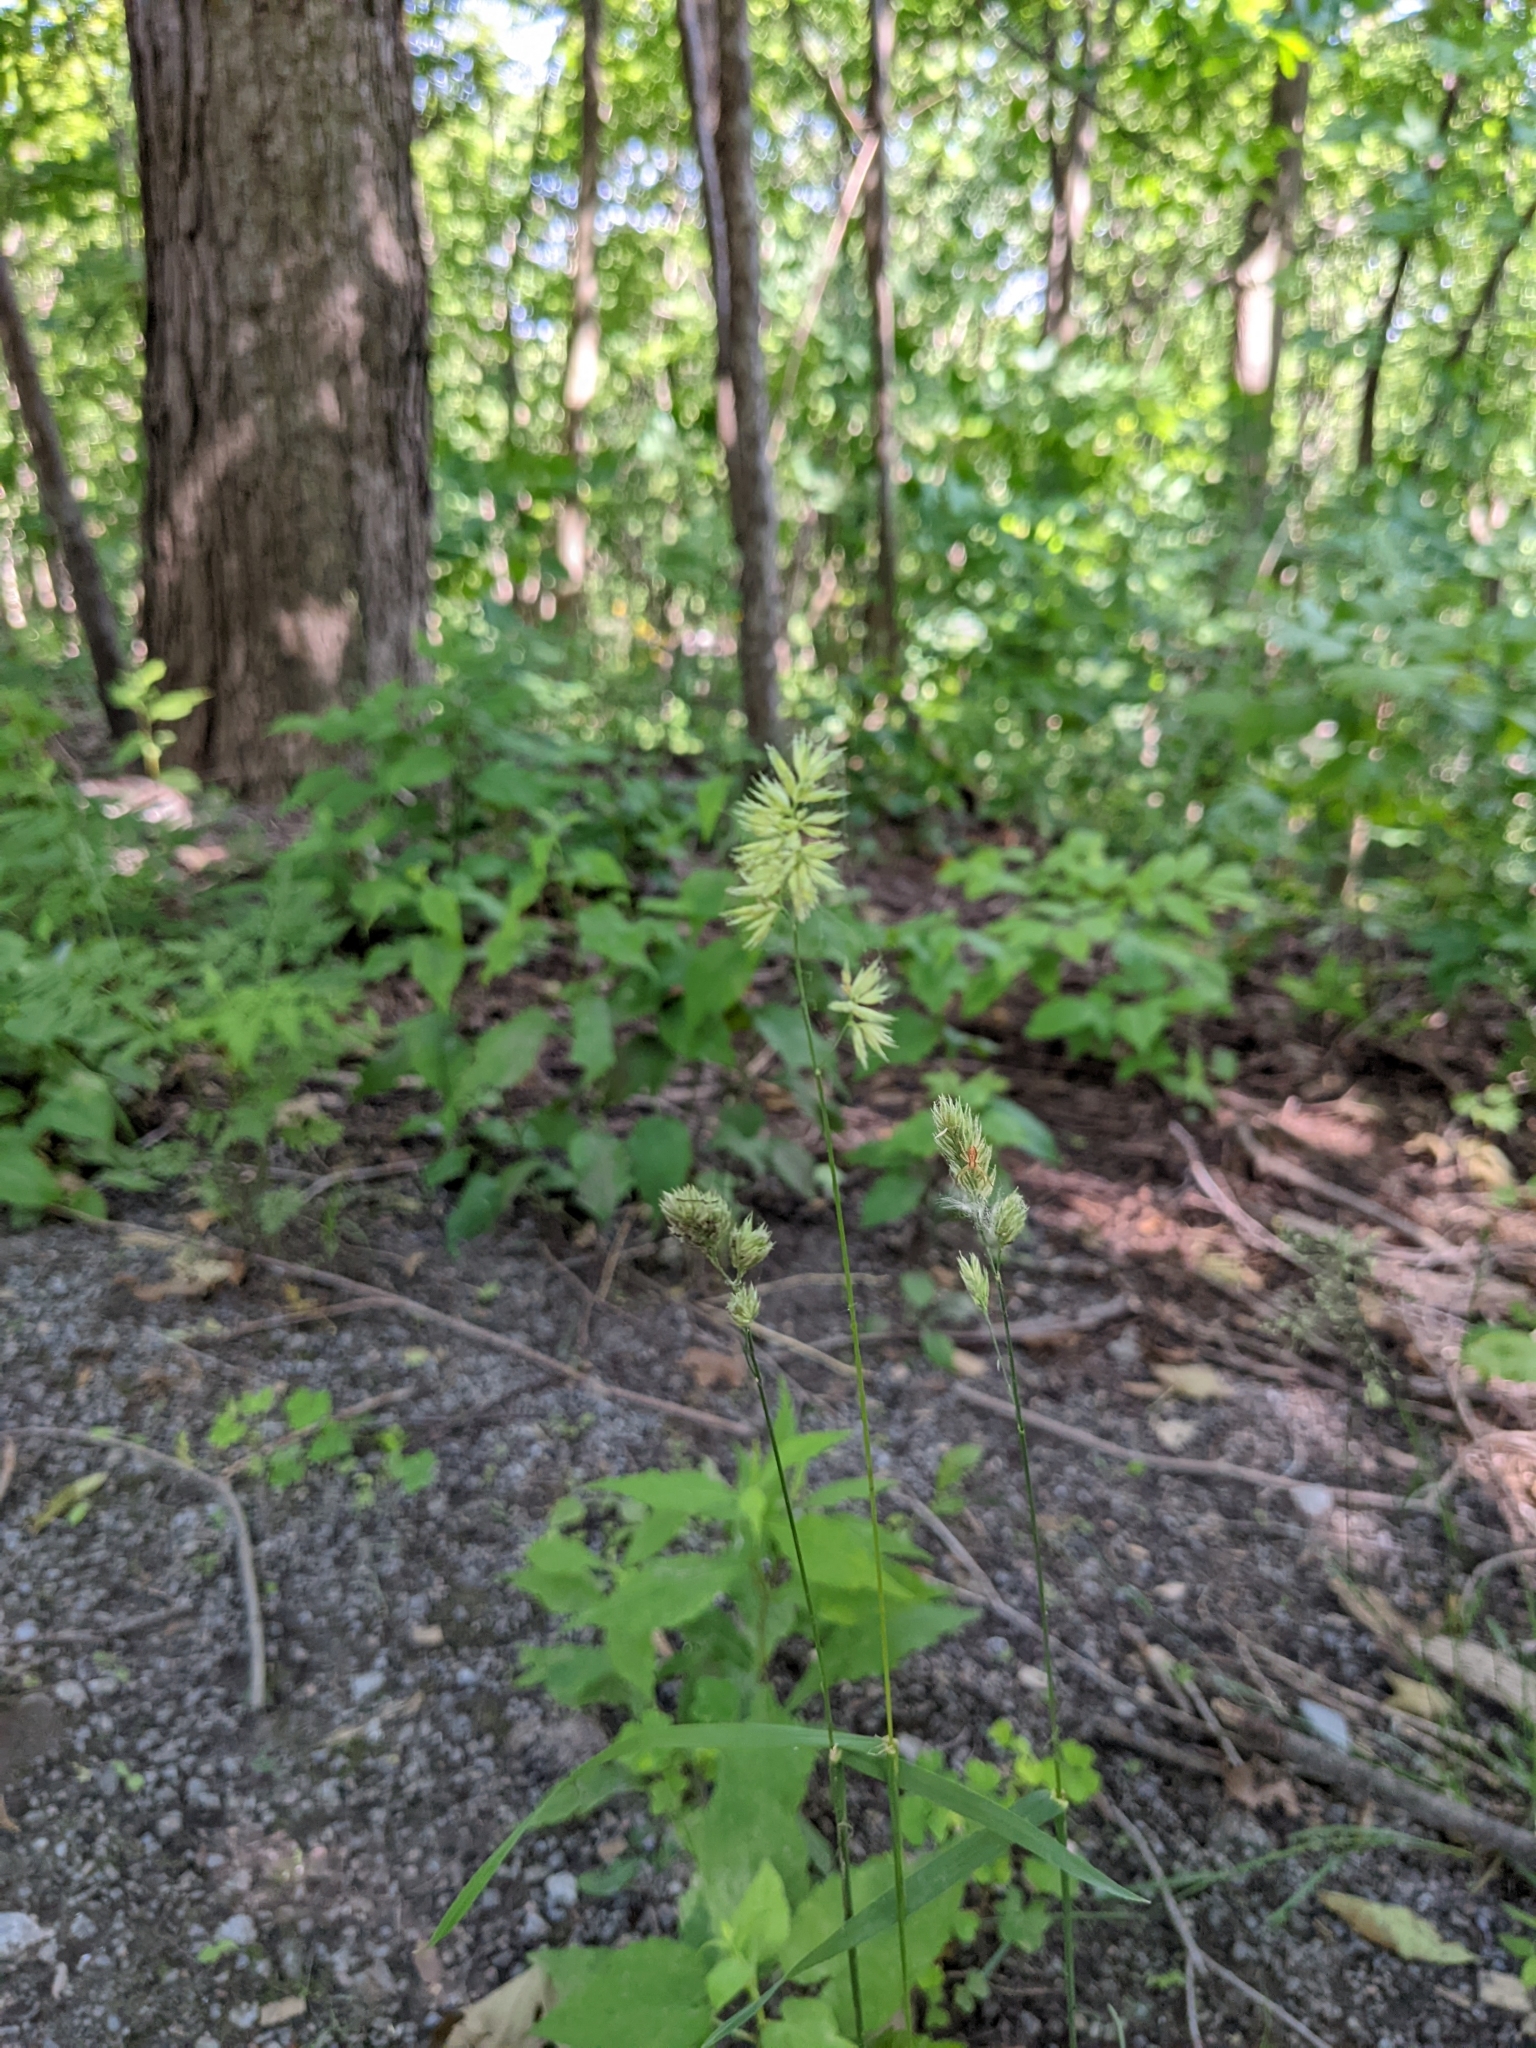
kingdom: Plantae
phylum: Tracheophyta
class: Liliopsida
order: Poales
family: Poaceae
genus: Dactylis
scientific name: Dactylis glomerata
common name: Orchardgrass
